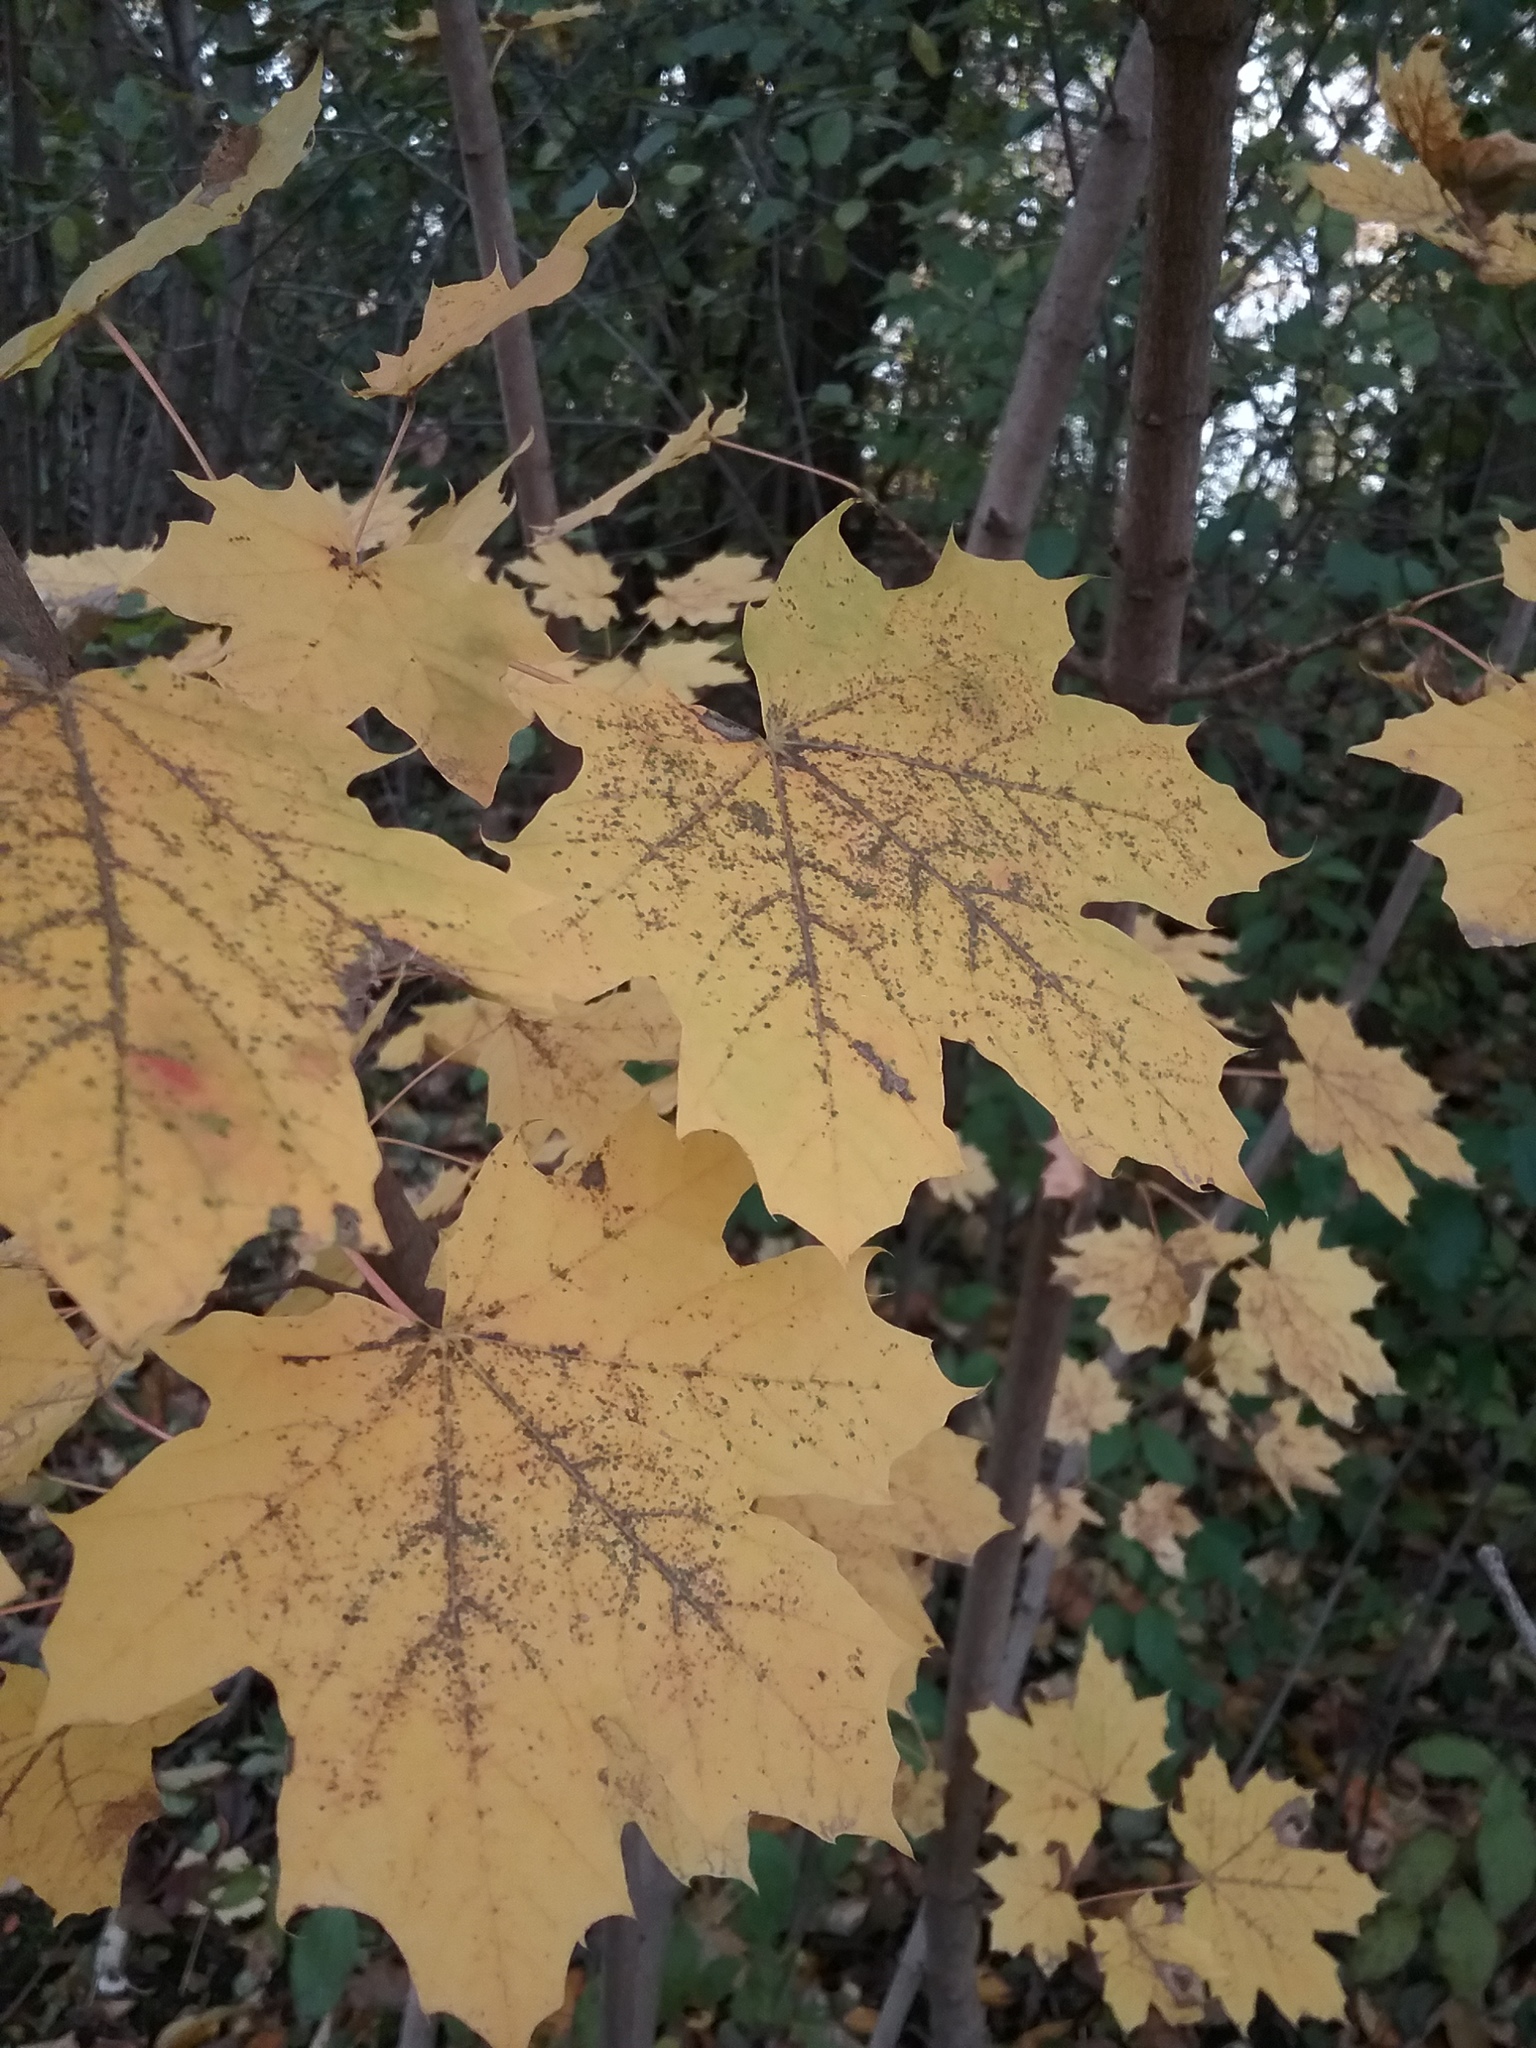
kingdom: Plantae
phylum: Tracheophyta
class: Magnoliopsida
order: Sapindales
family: Sapindaceae
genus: Acer
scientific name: Acer platanoides
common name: Norway maple
